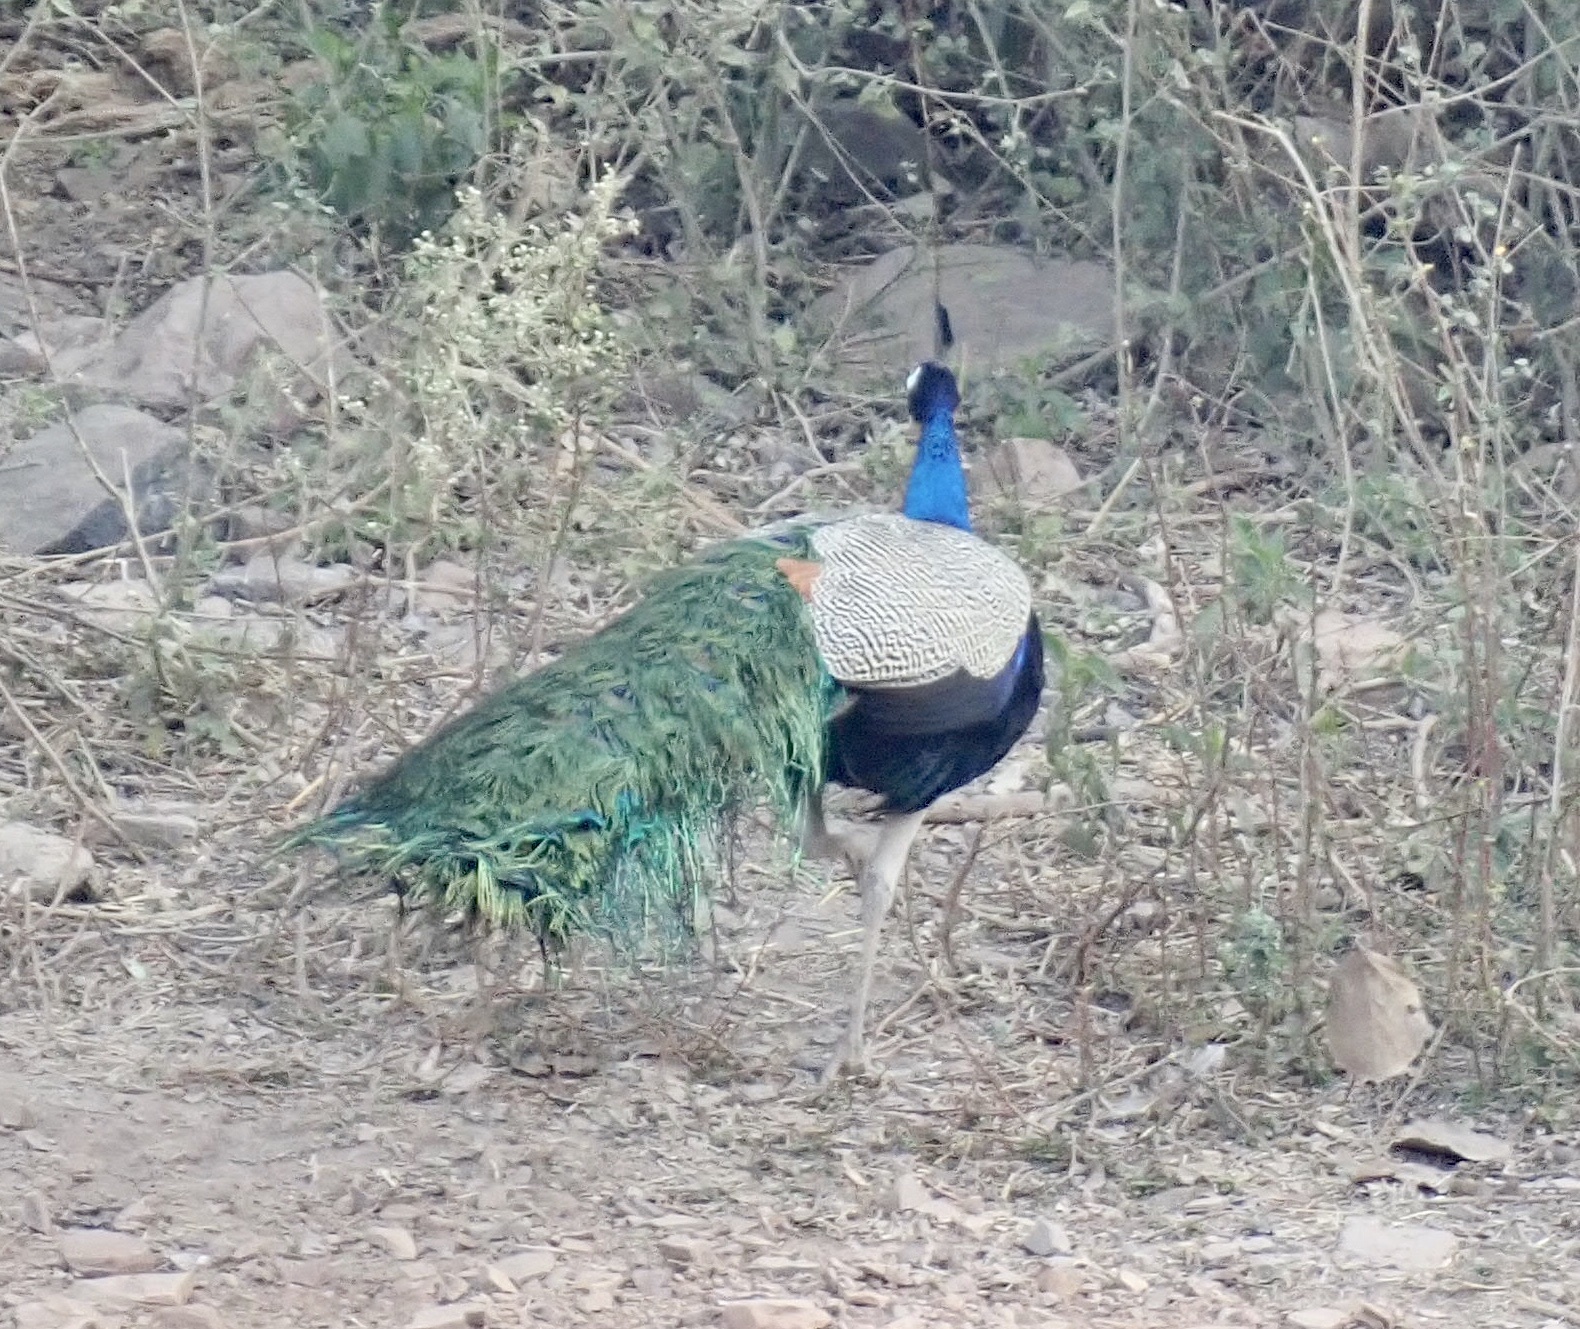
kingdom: Animalia
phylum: Chordata
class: Aves
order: Galliformes
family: Phasianidae
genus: Pavo
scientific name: Pavo cristatus
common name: Indian peafowl
